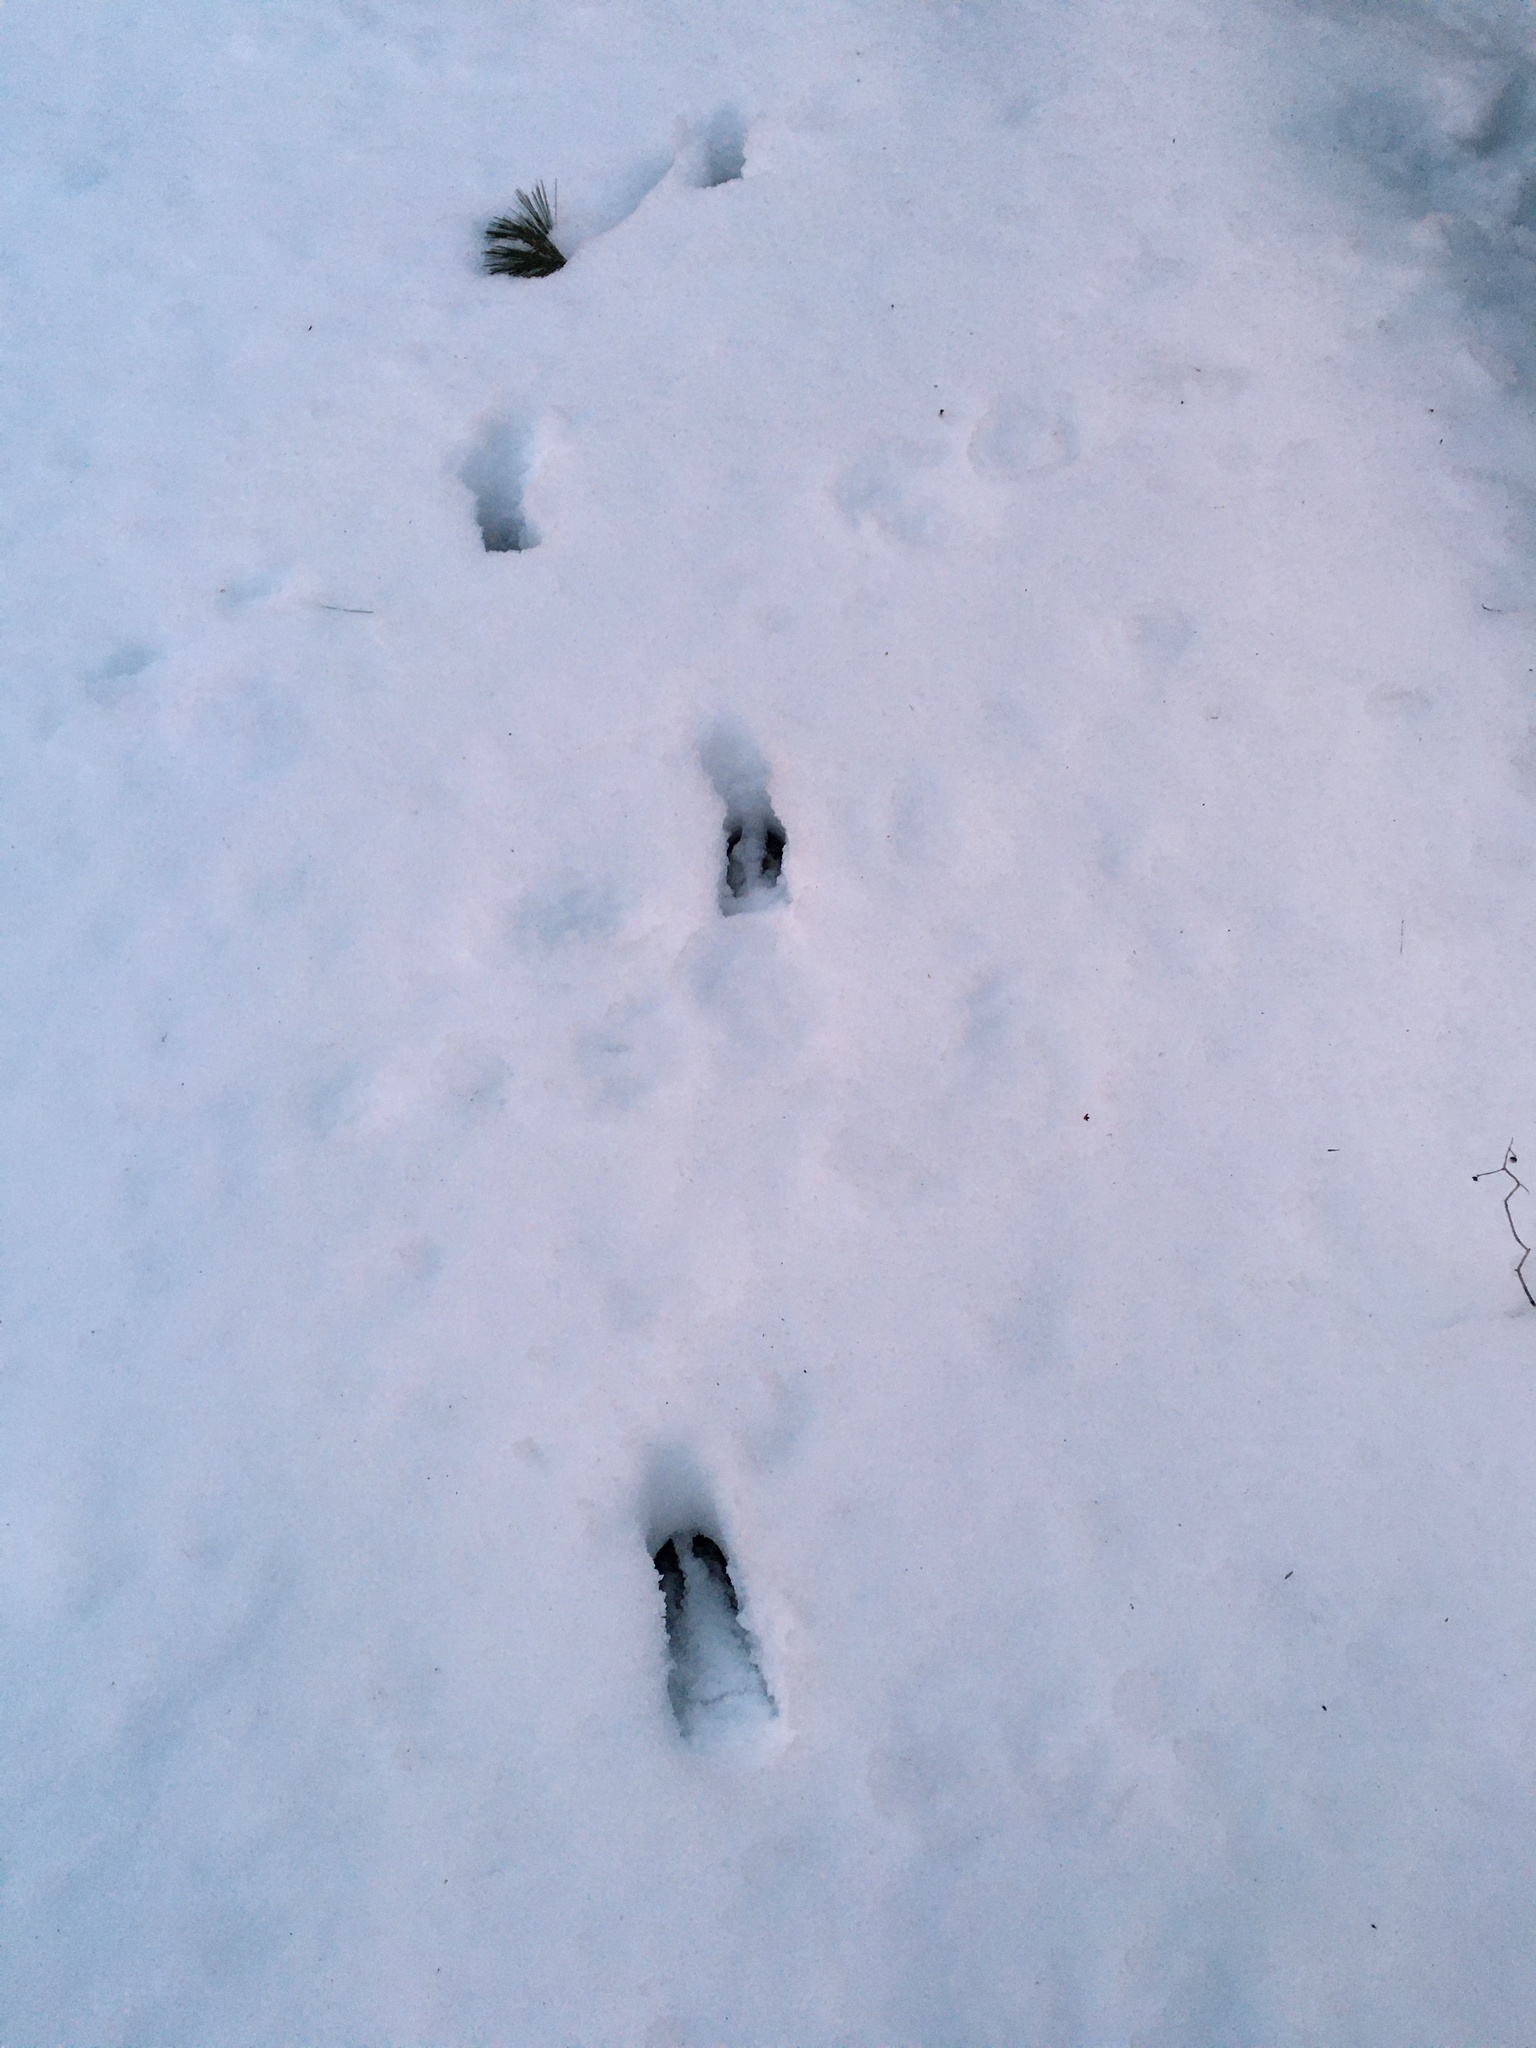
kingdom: Animalia
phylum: Chordata
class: Mammalia
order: Artiodactyla
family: Cervidae
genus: Odocoileus
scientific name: Odocoileus virginianus
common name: White-tailed deer
